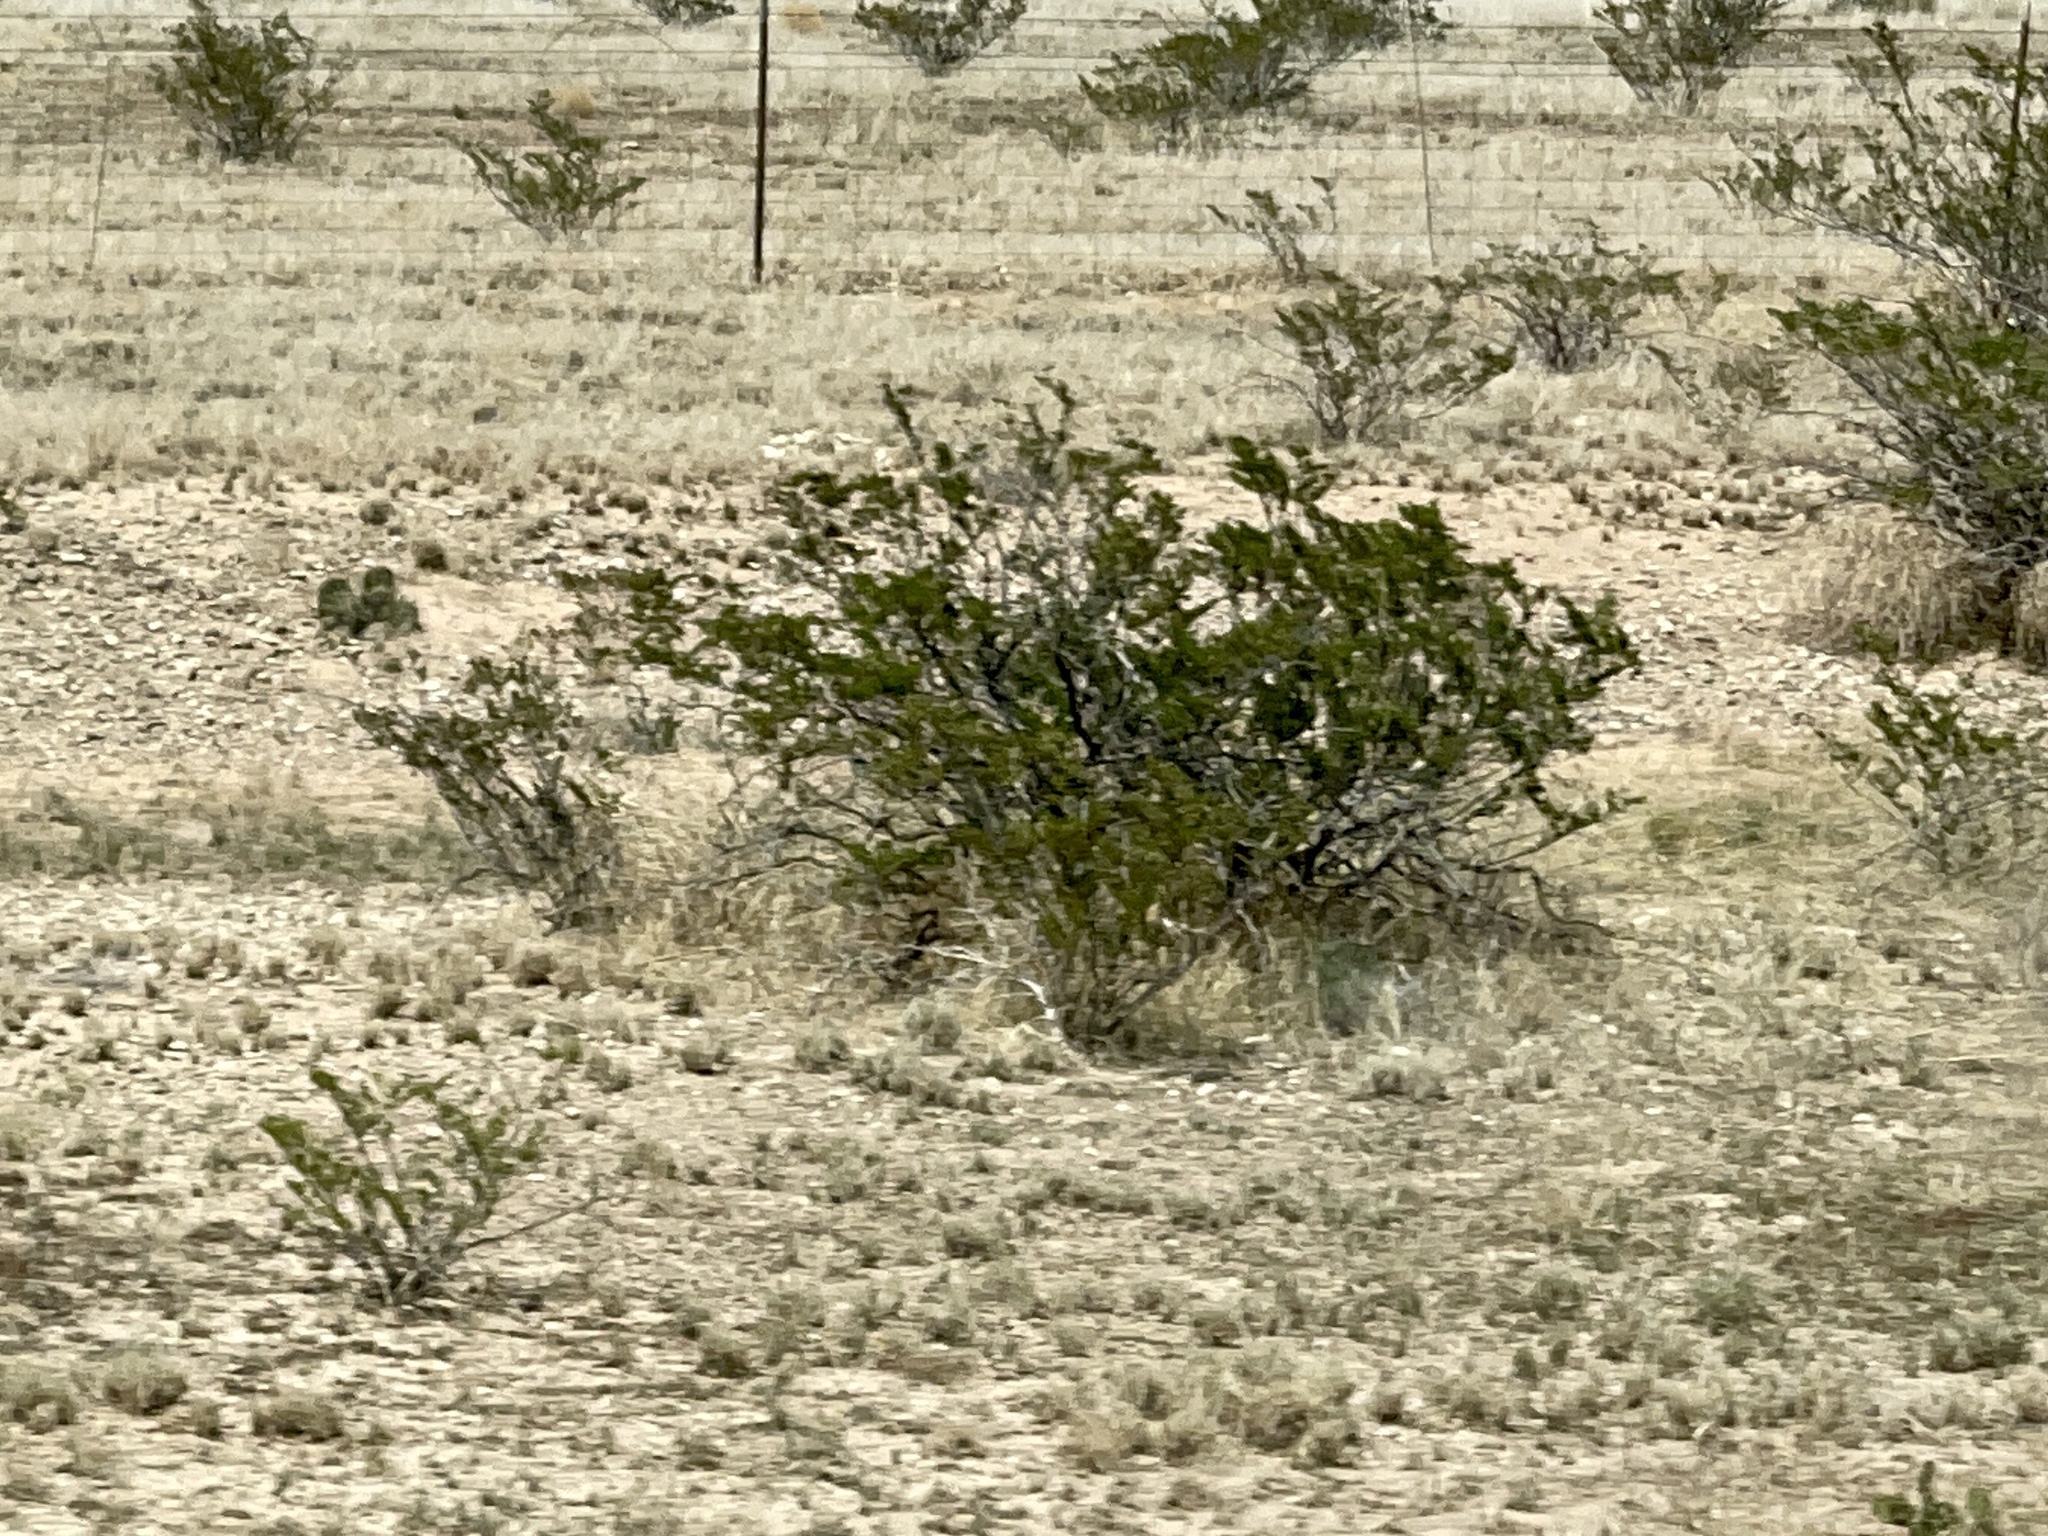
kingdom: Plantae
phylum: Tracheophyta
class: Magnoliopsida
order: Zygophyllales
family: Zygophyllaceae
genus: Larrea
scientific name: Larrea tridentata
